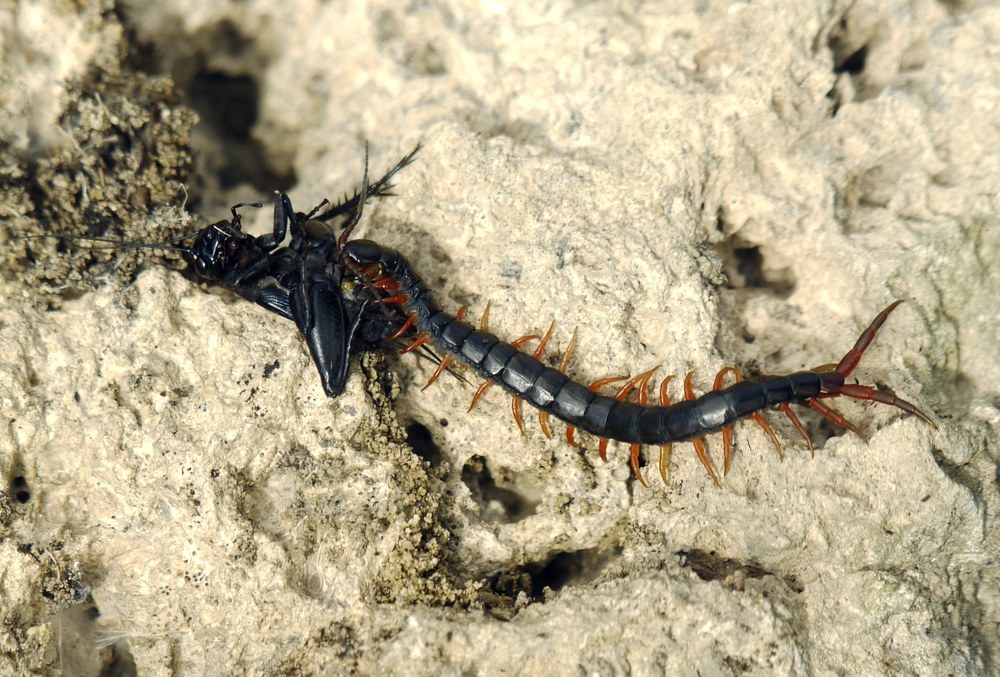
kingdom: Animalia
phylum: Arthropoda
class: Chilopoda
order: Scolopendromorpha
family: Scolopendridae
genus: Scolopendra
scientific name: Scolopendra cingulata
